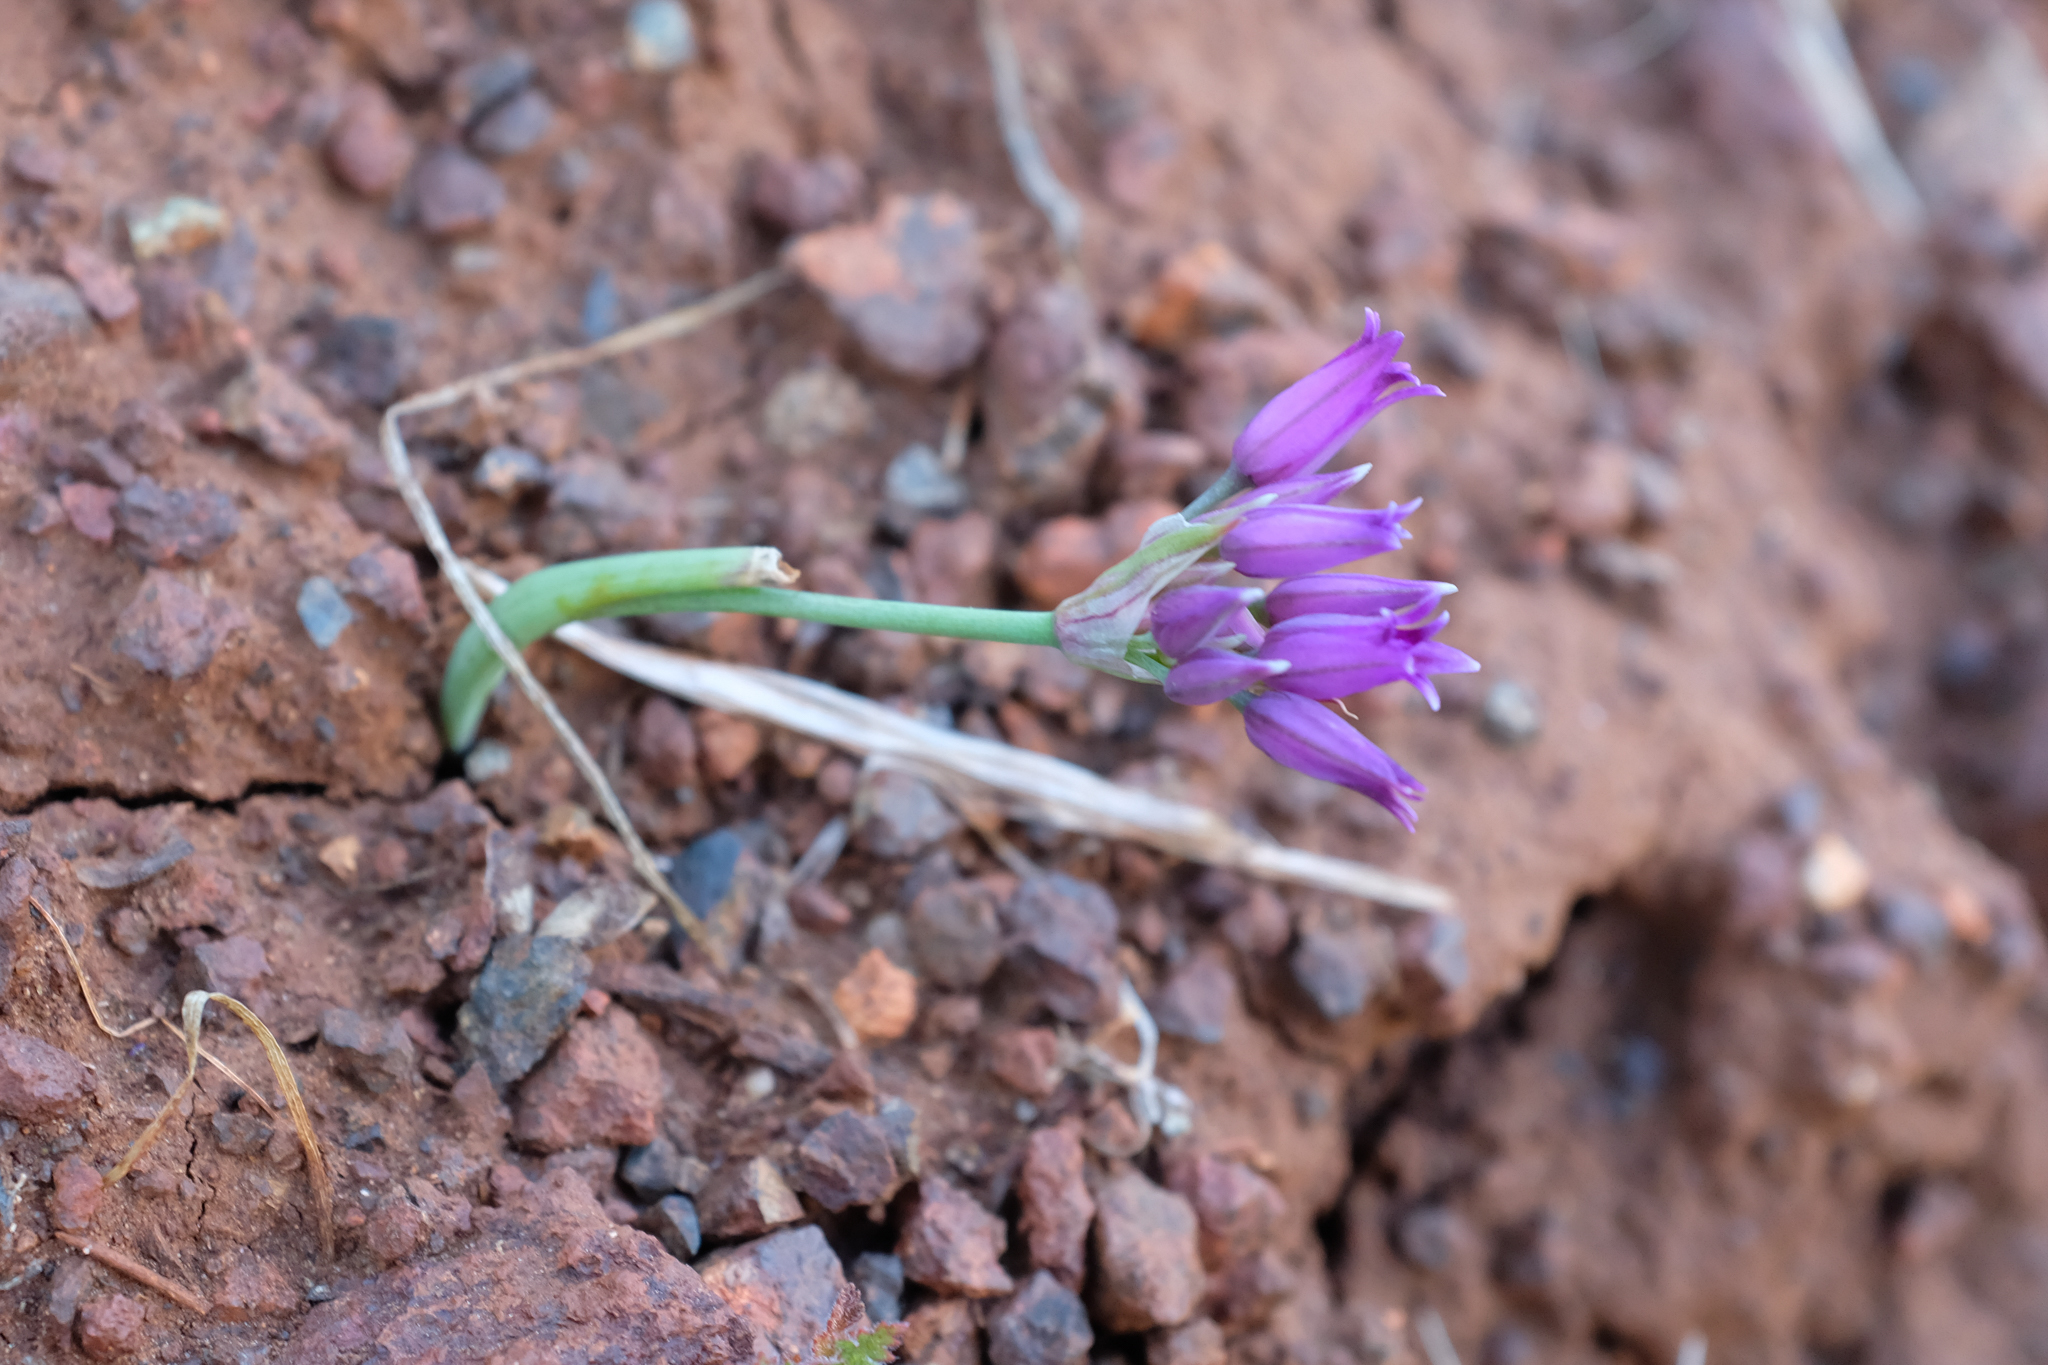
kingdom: Plantae
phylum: Tracheophyta
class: Liliopsida
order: Asparagales
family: Amaryllidaceae
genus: Allium
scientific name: Allium
